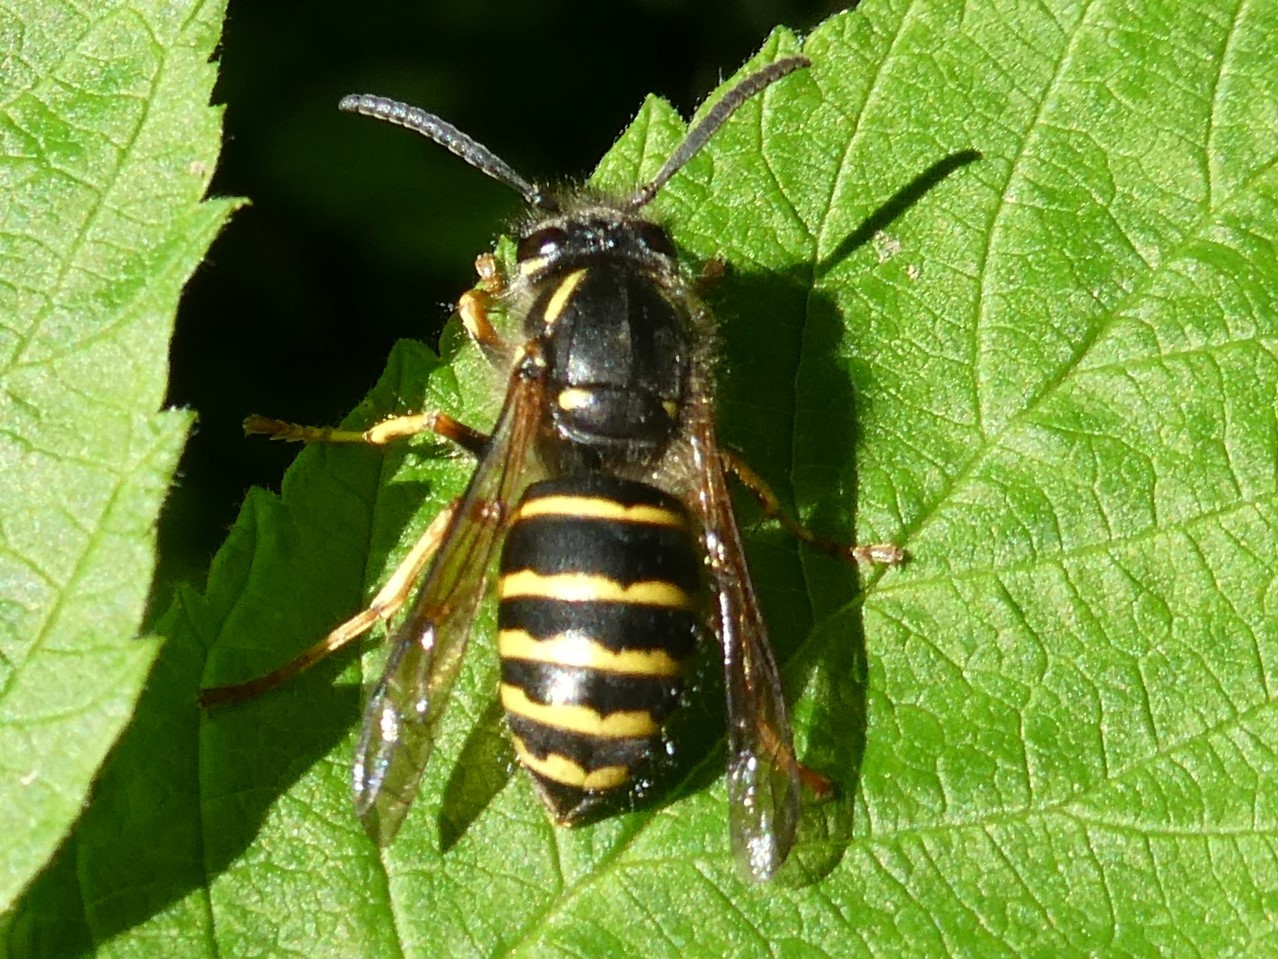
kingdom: Animalia
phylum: Arthropoda
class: Insecta
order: Hymenoptera
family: Vespidae
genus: Dolichovespula
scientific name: Dolichovespula norvegicoides
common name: Northern aerial yellowjacket
